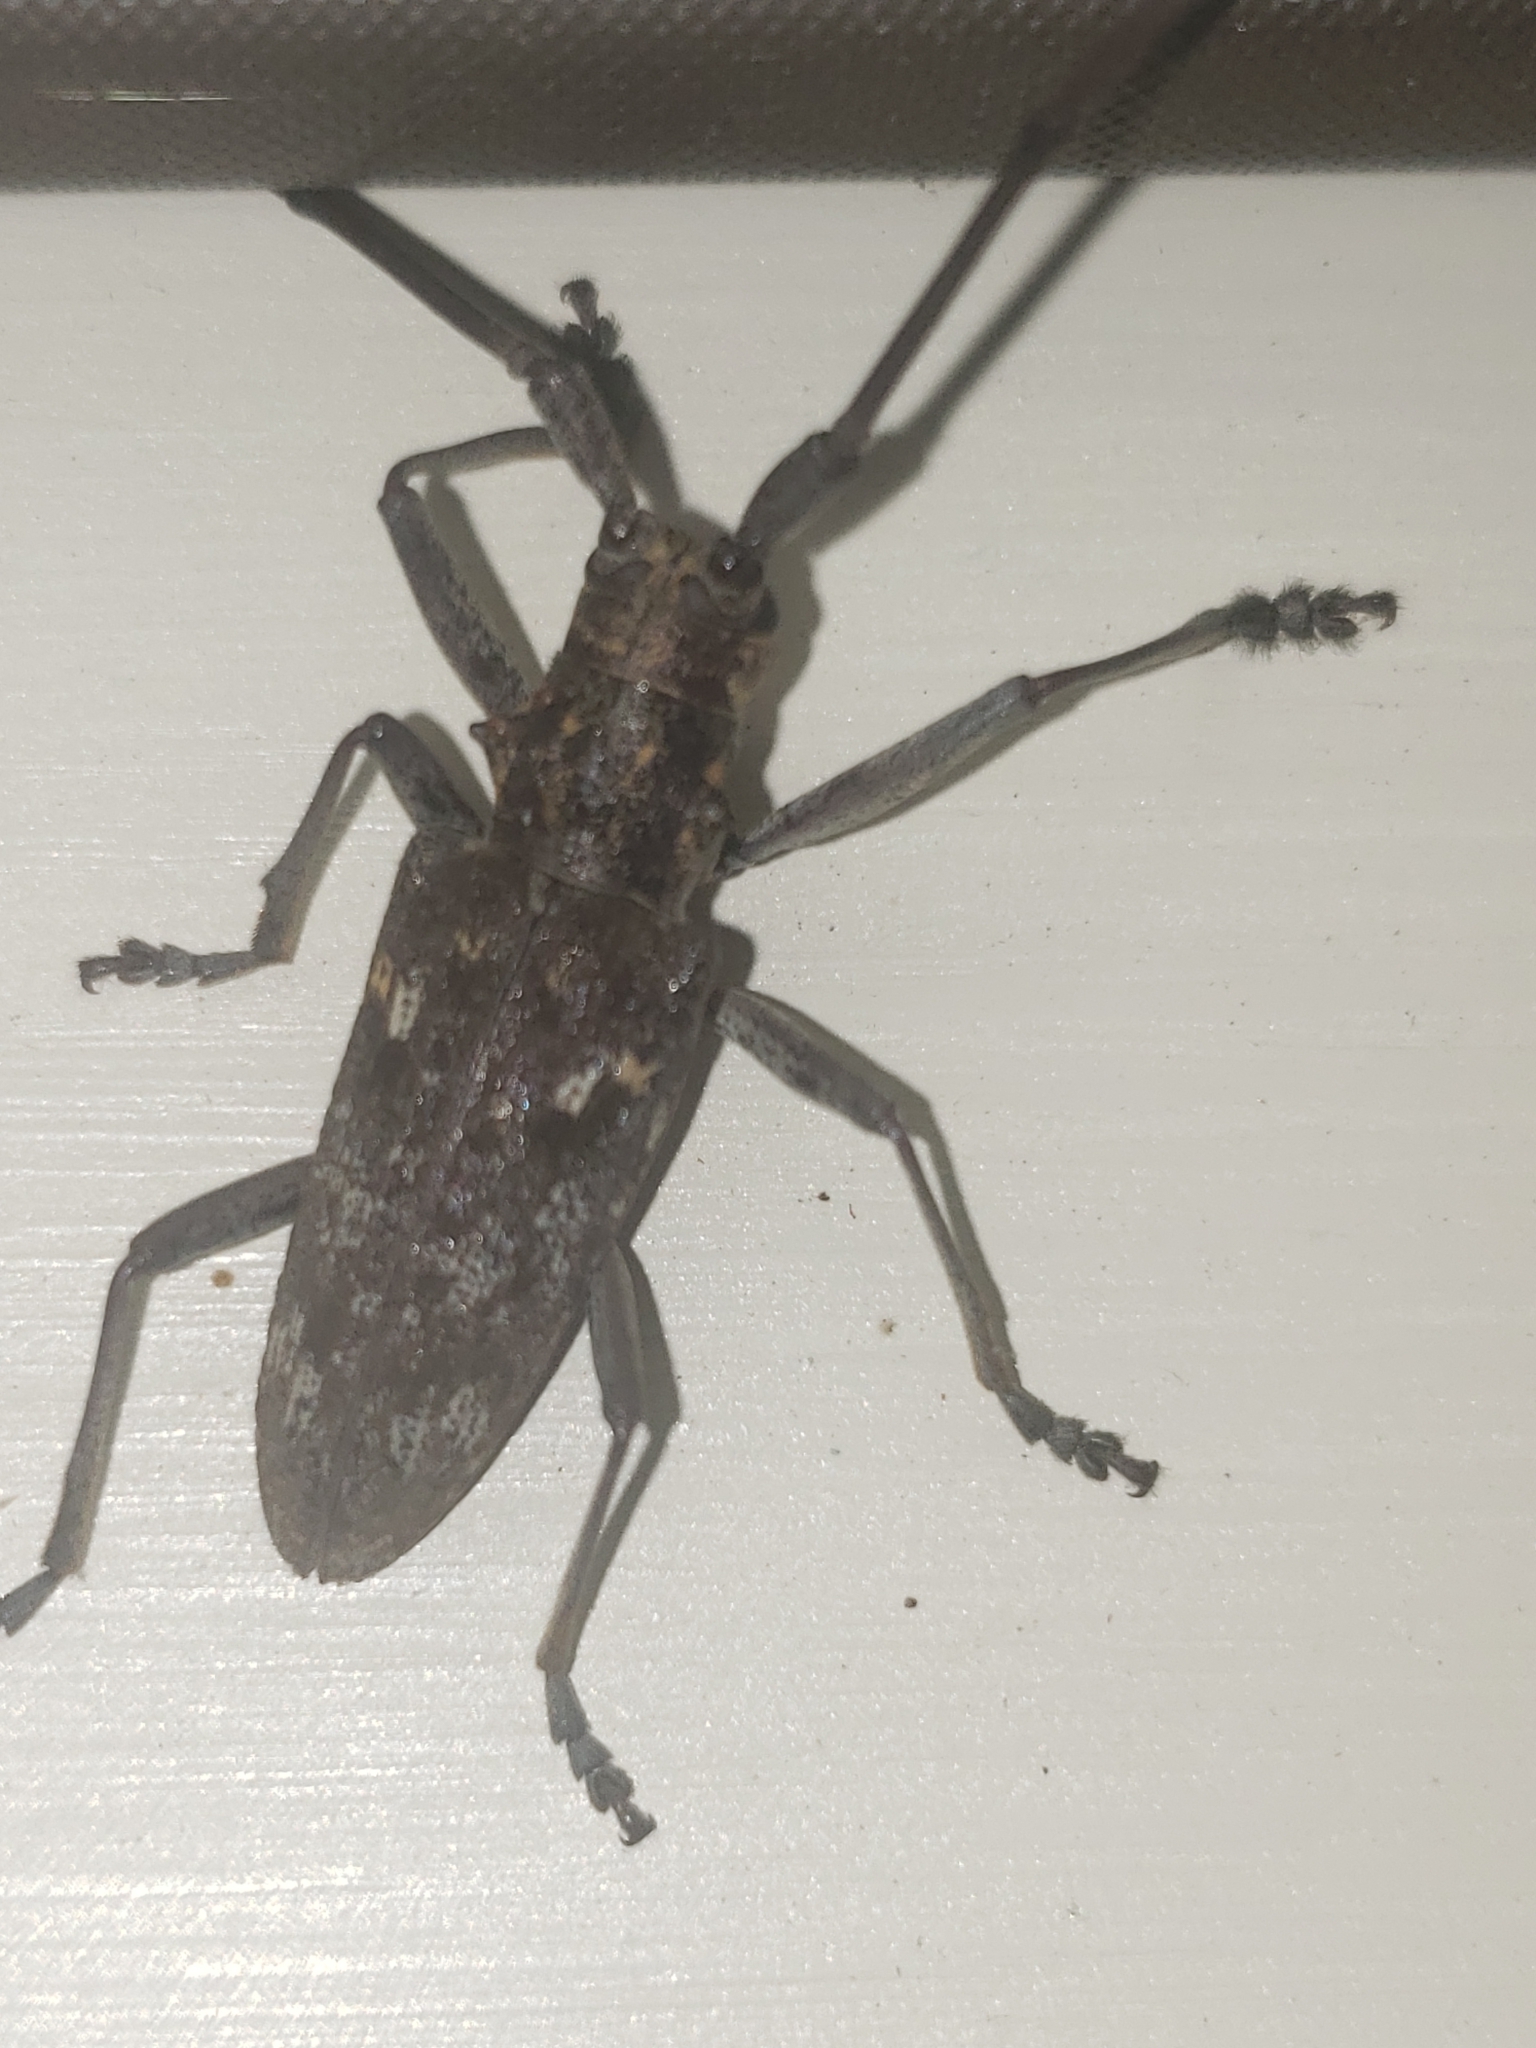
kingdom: Animalia
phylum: Arthropoda
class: Insecta
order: Coleoptera
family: Cerambycidae
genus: Monochamus
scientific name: Monochamus carolinensis
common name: Carolina pine sawyer
